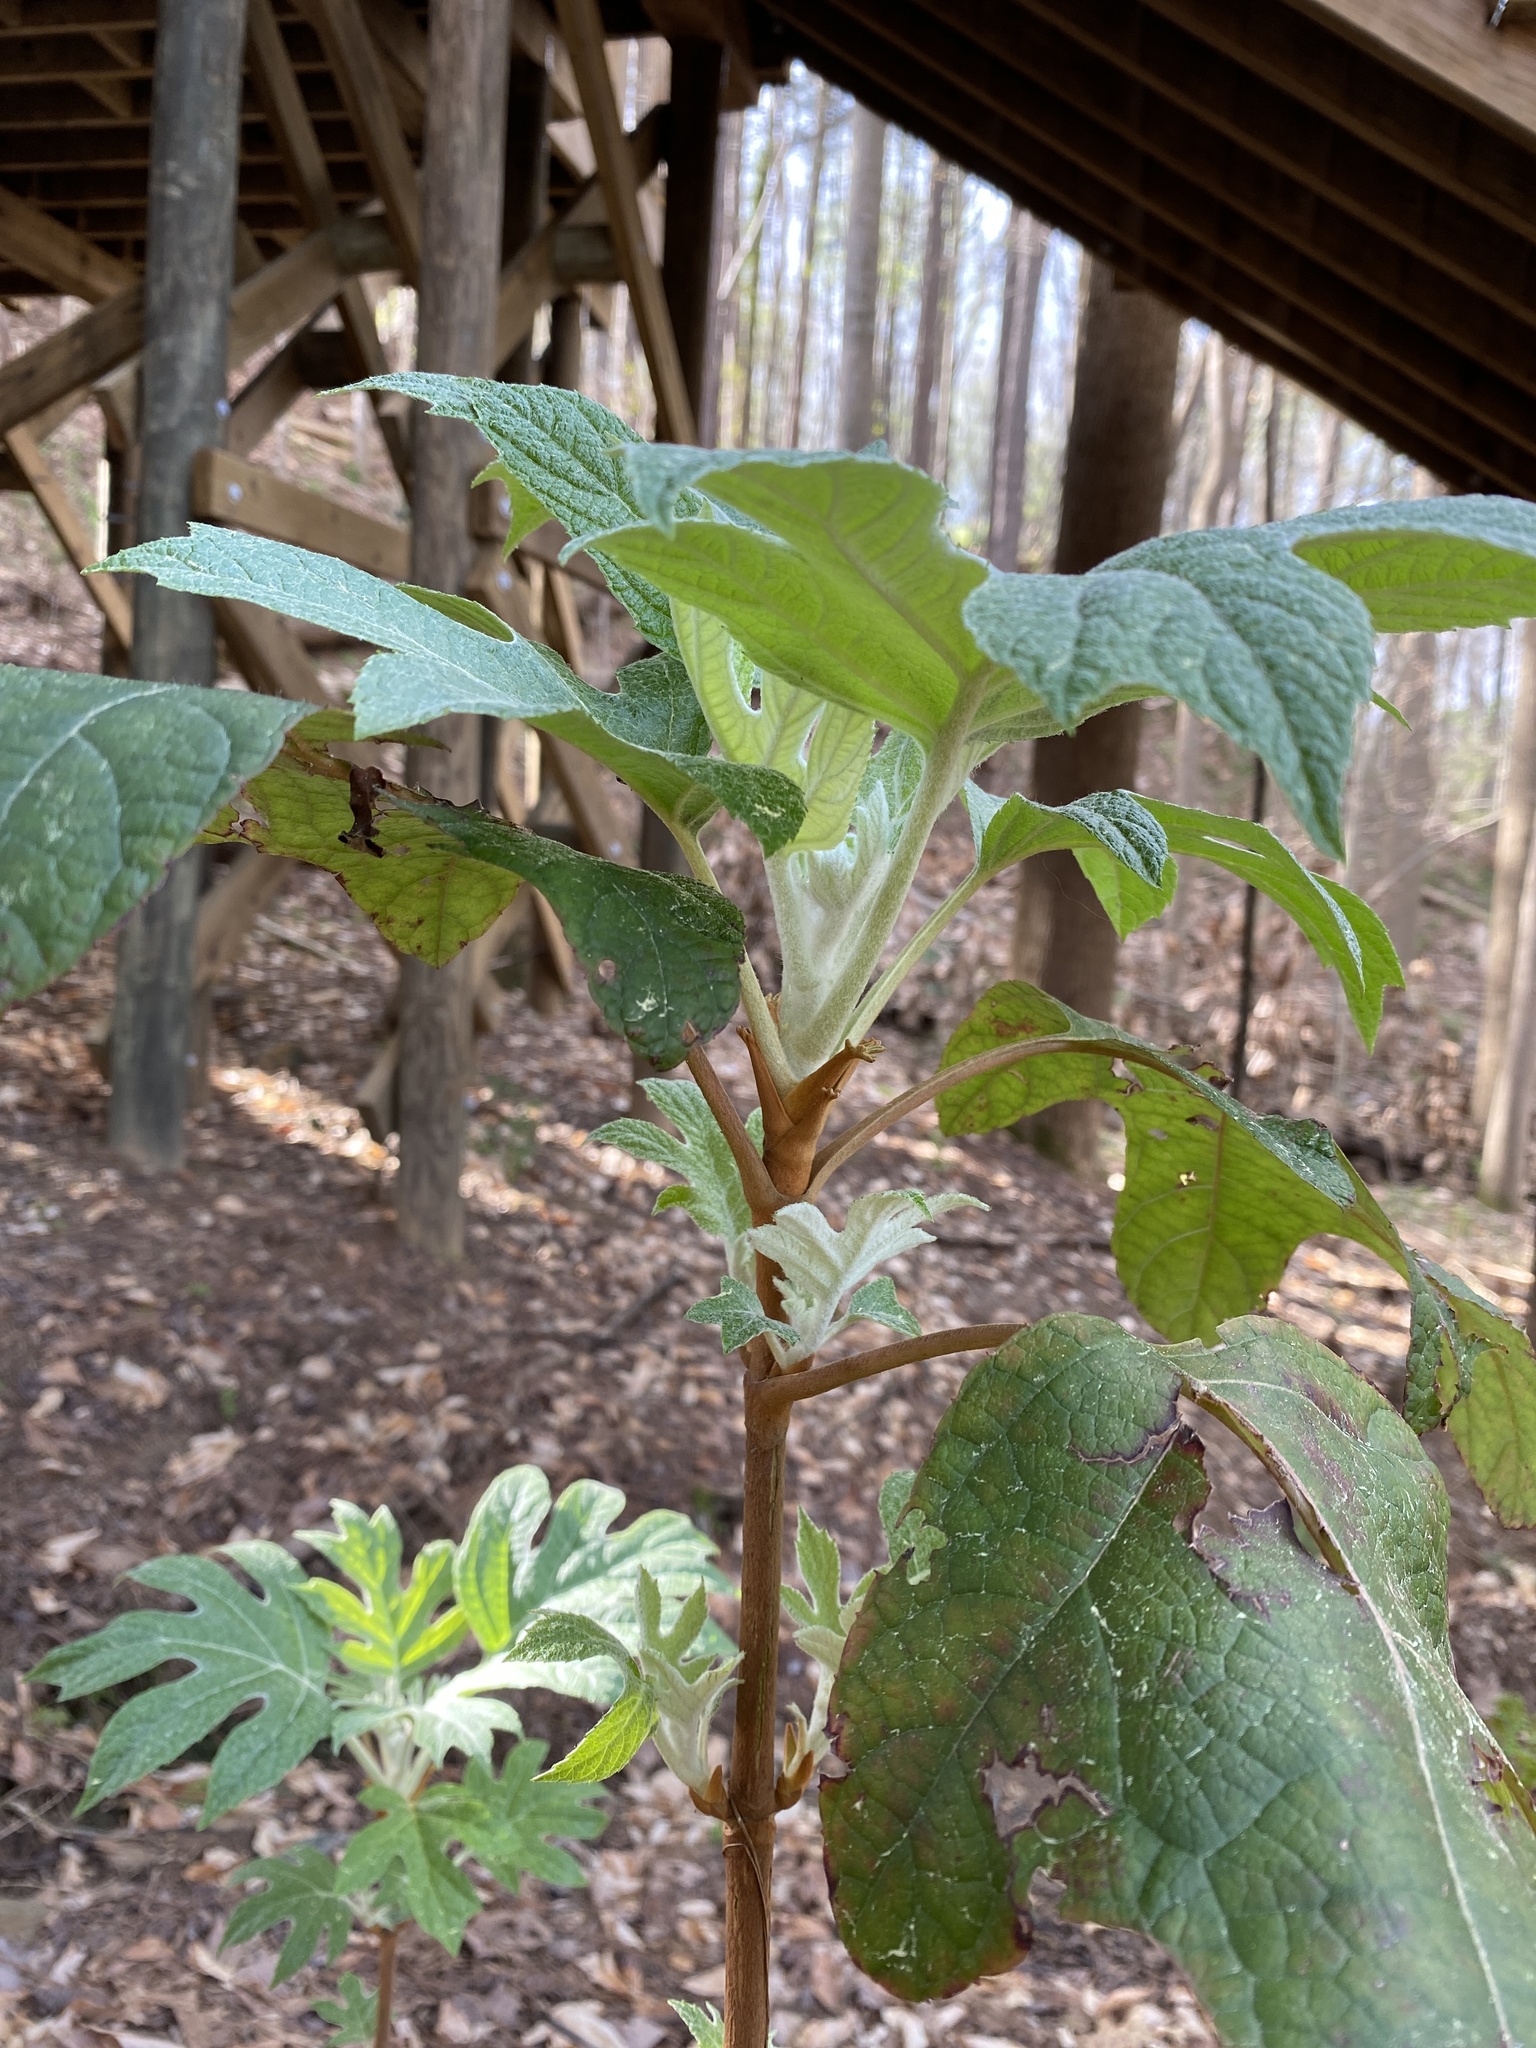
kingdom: Plantae
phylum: Tracheophyta
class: Magnoliopsida
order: Cornales
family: Hydrangeaceae
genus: Hydrangea
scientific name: Hydrangea quercifolia
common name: Oak-leaf hydrangea
